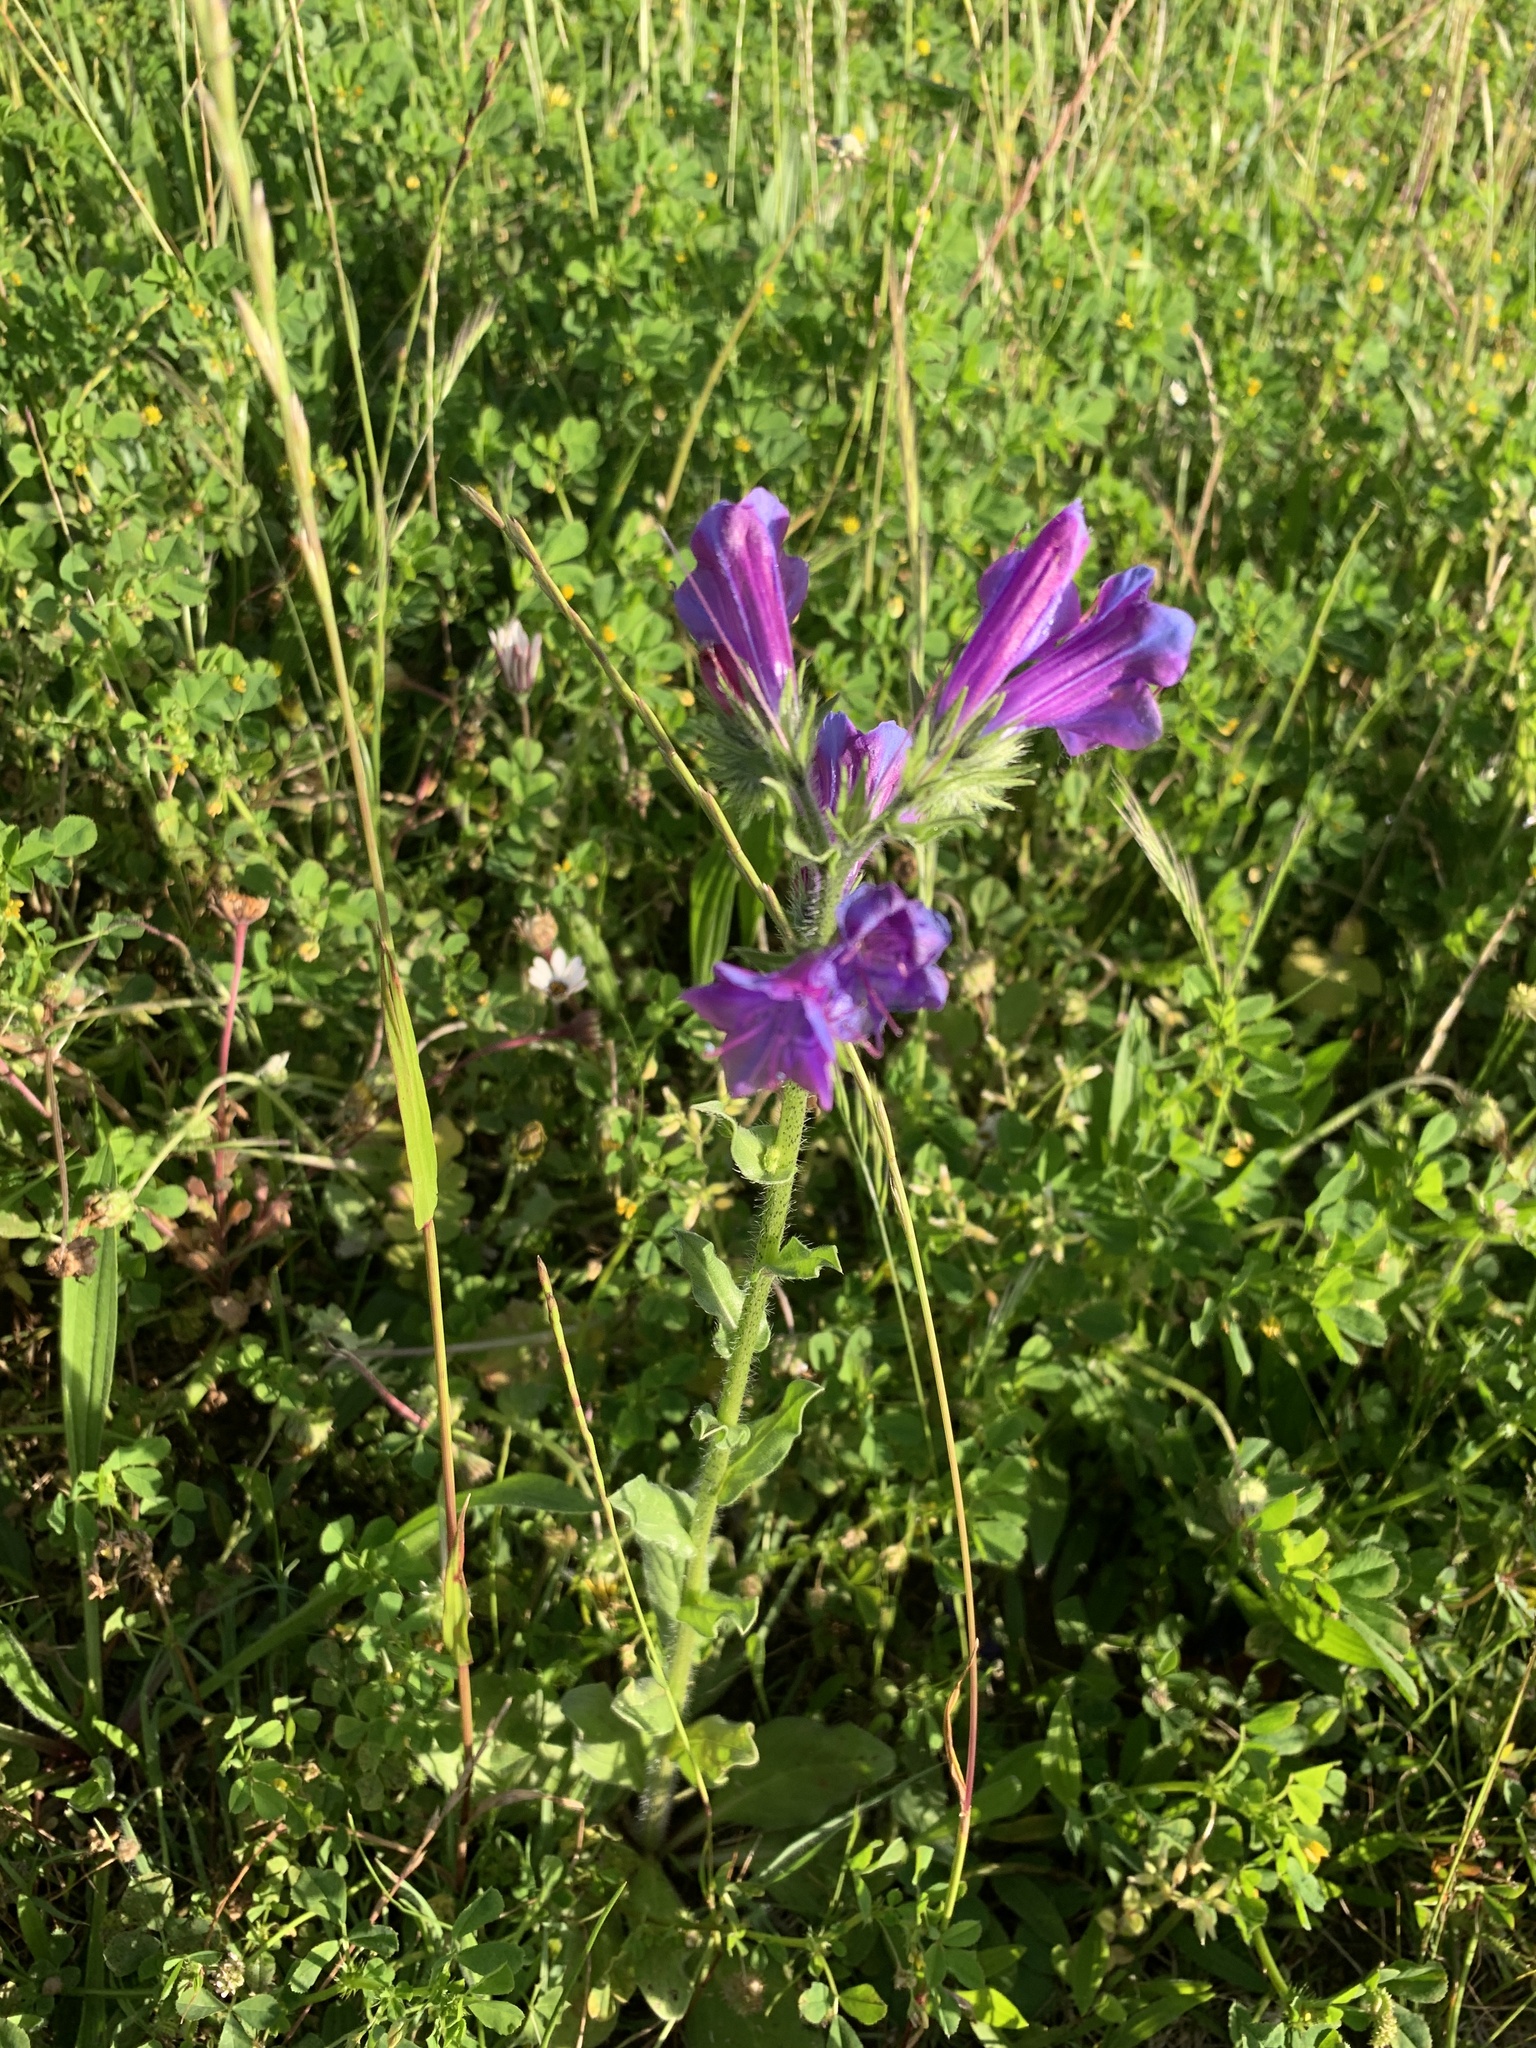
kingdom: Plantae
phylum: Tracheophyta
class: Magnoliopsida
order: Boraginales
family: Boraginaceae
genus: Echium
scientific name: Echium plantagineum
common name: Purple viper's-bugloss
